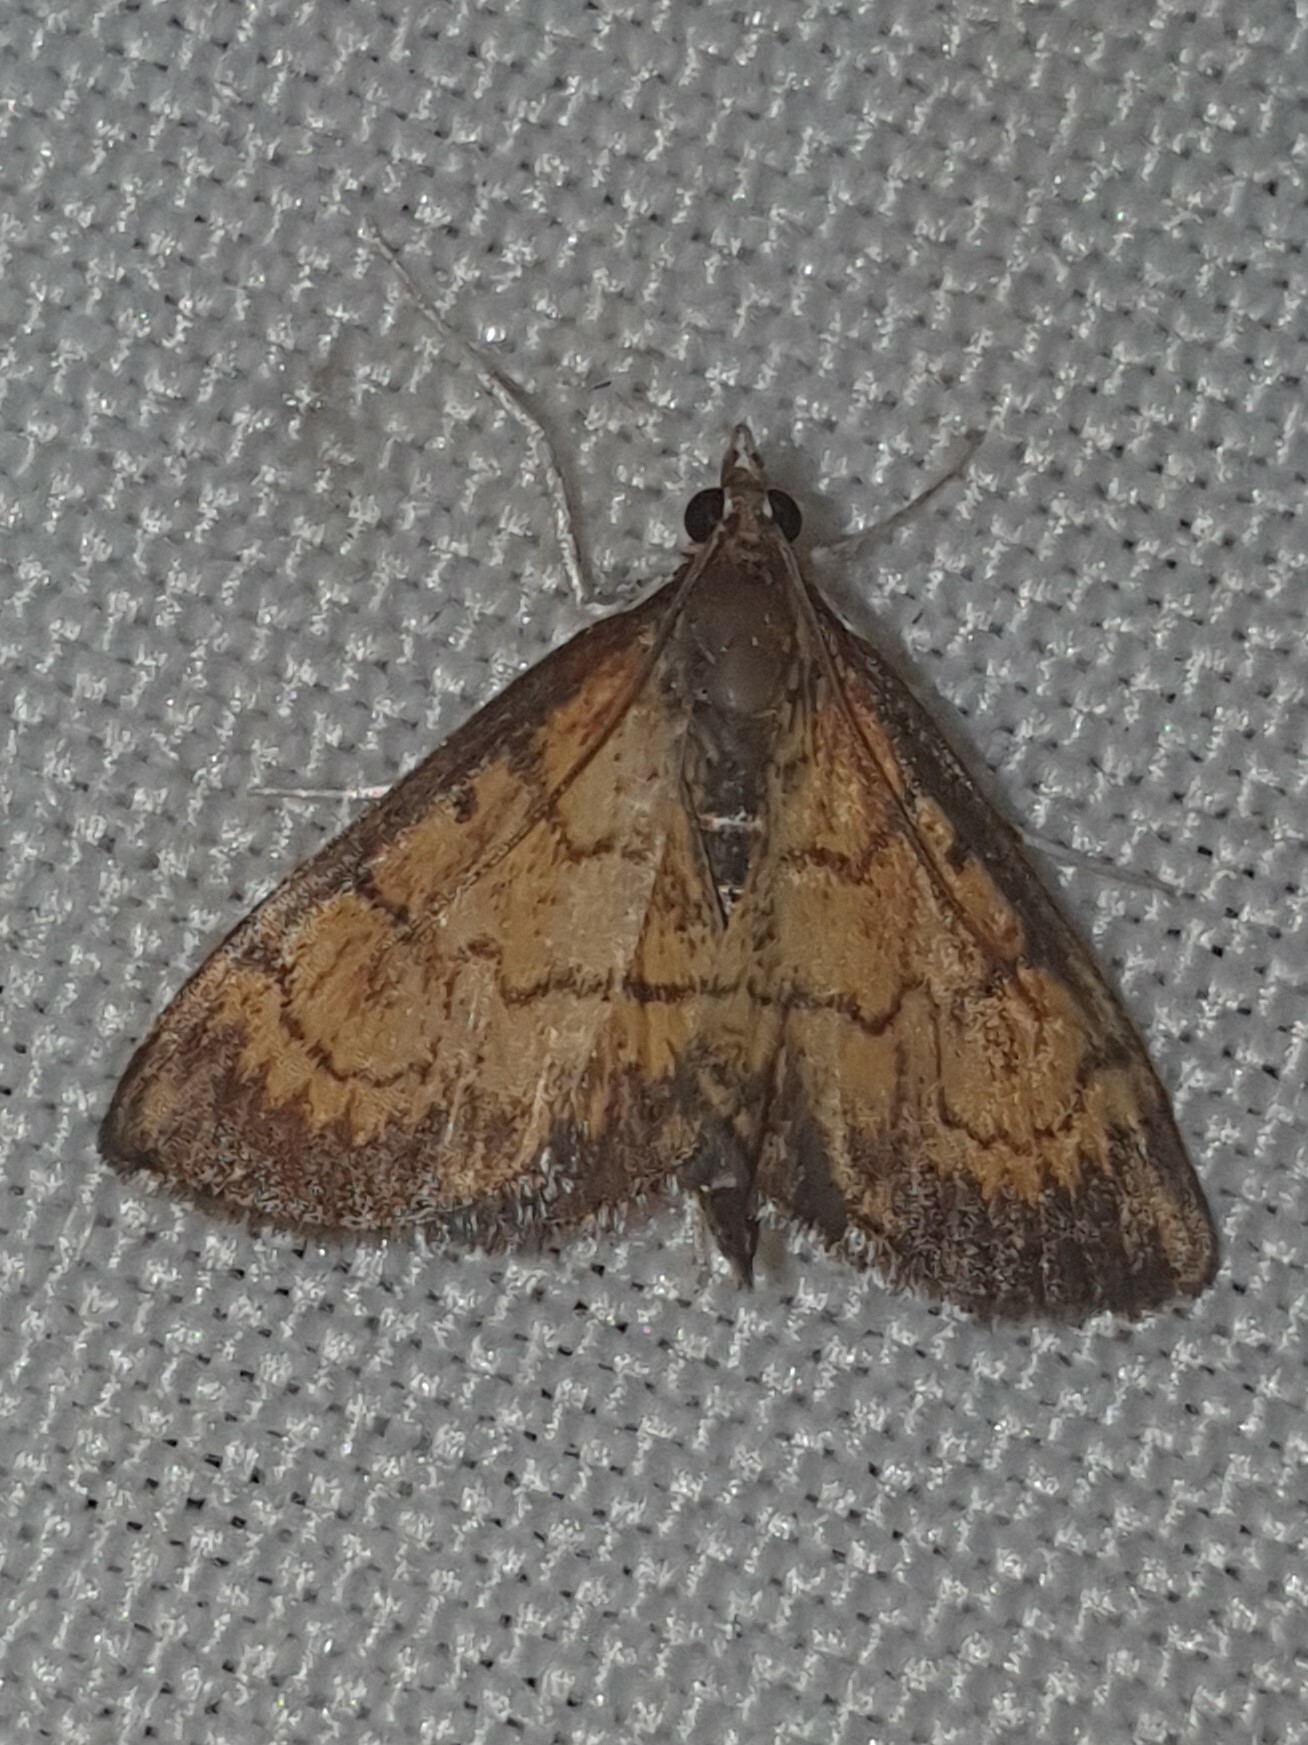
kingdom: Animalia
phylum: Arthropoda
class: Insecta
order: Lepidoptera
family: Crambidae
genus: Ecpyrrhorrhoe
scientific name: Ecpyrrhorrhoe rubiginalis
